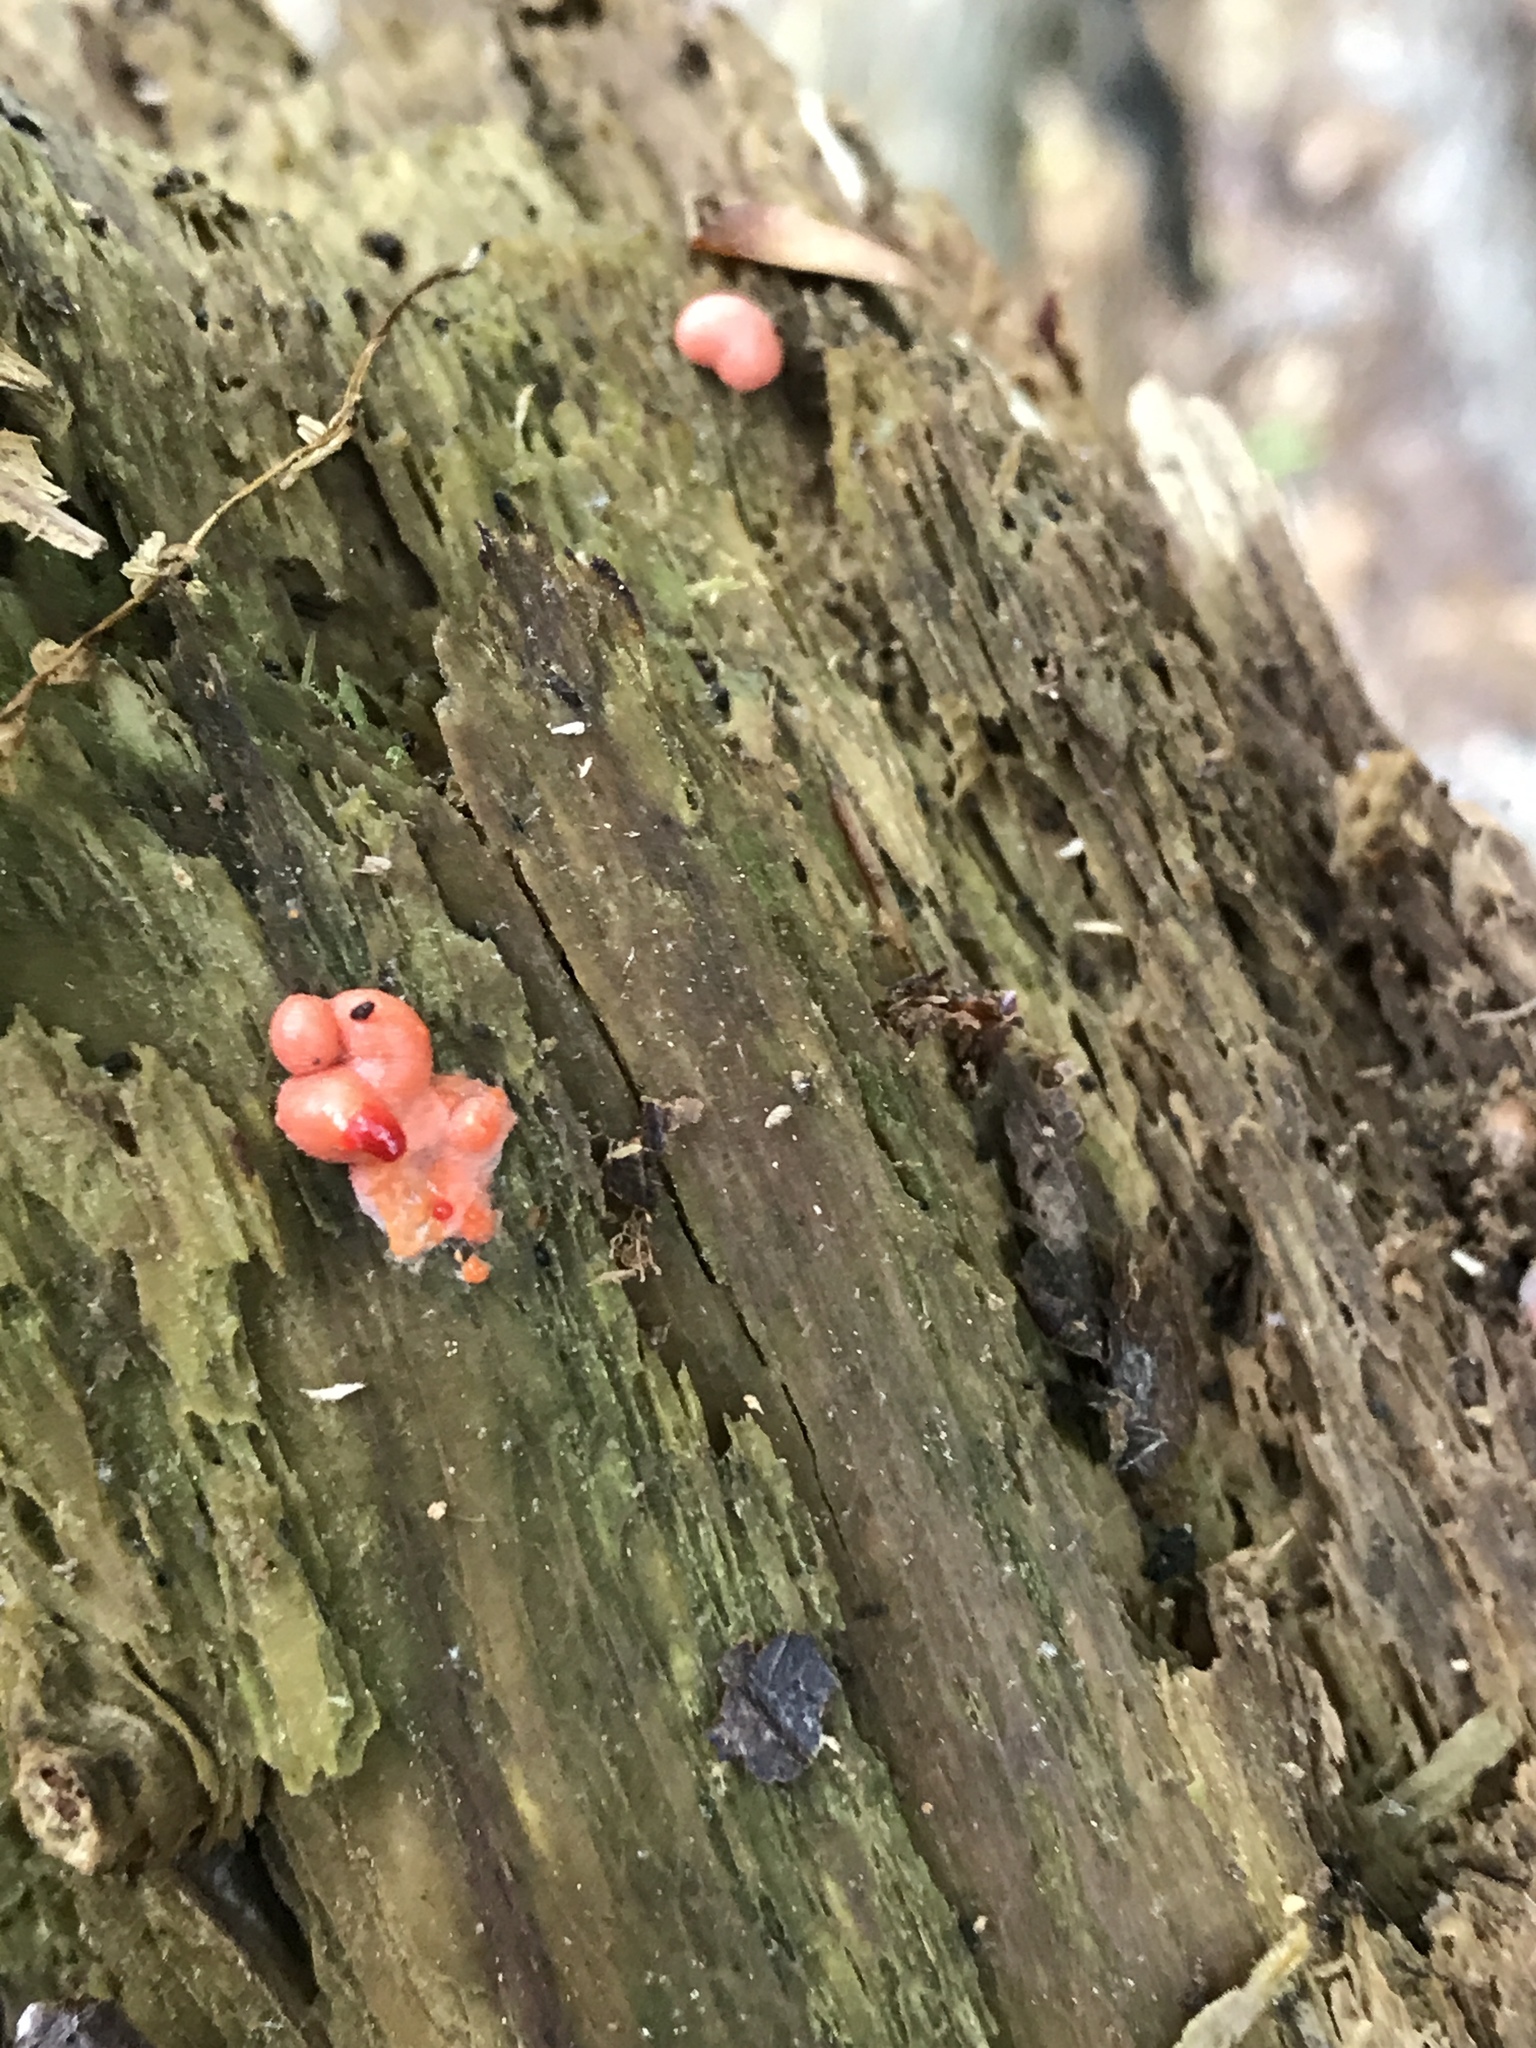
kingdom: Protozoa
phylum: Mycetozoa
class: Myxomycetes
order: Cribrariales
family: Tubiferaceae
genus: Lycogala
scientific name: Lycogala epidendrum
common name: Wolf's milk
